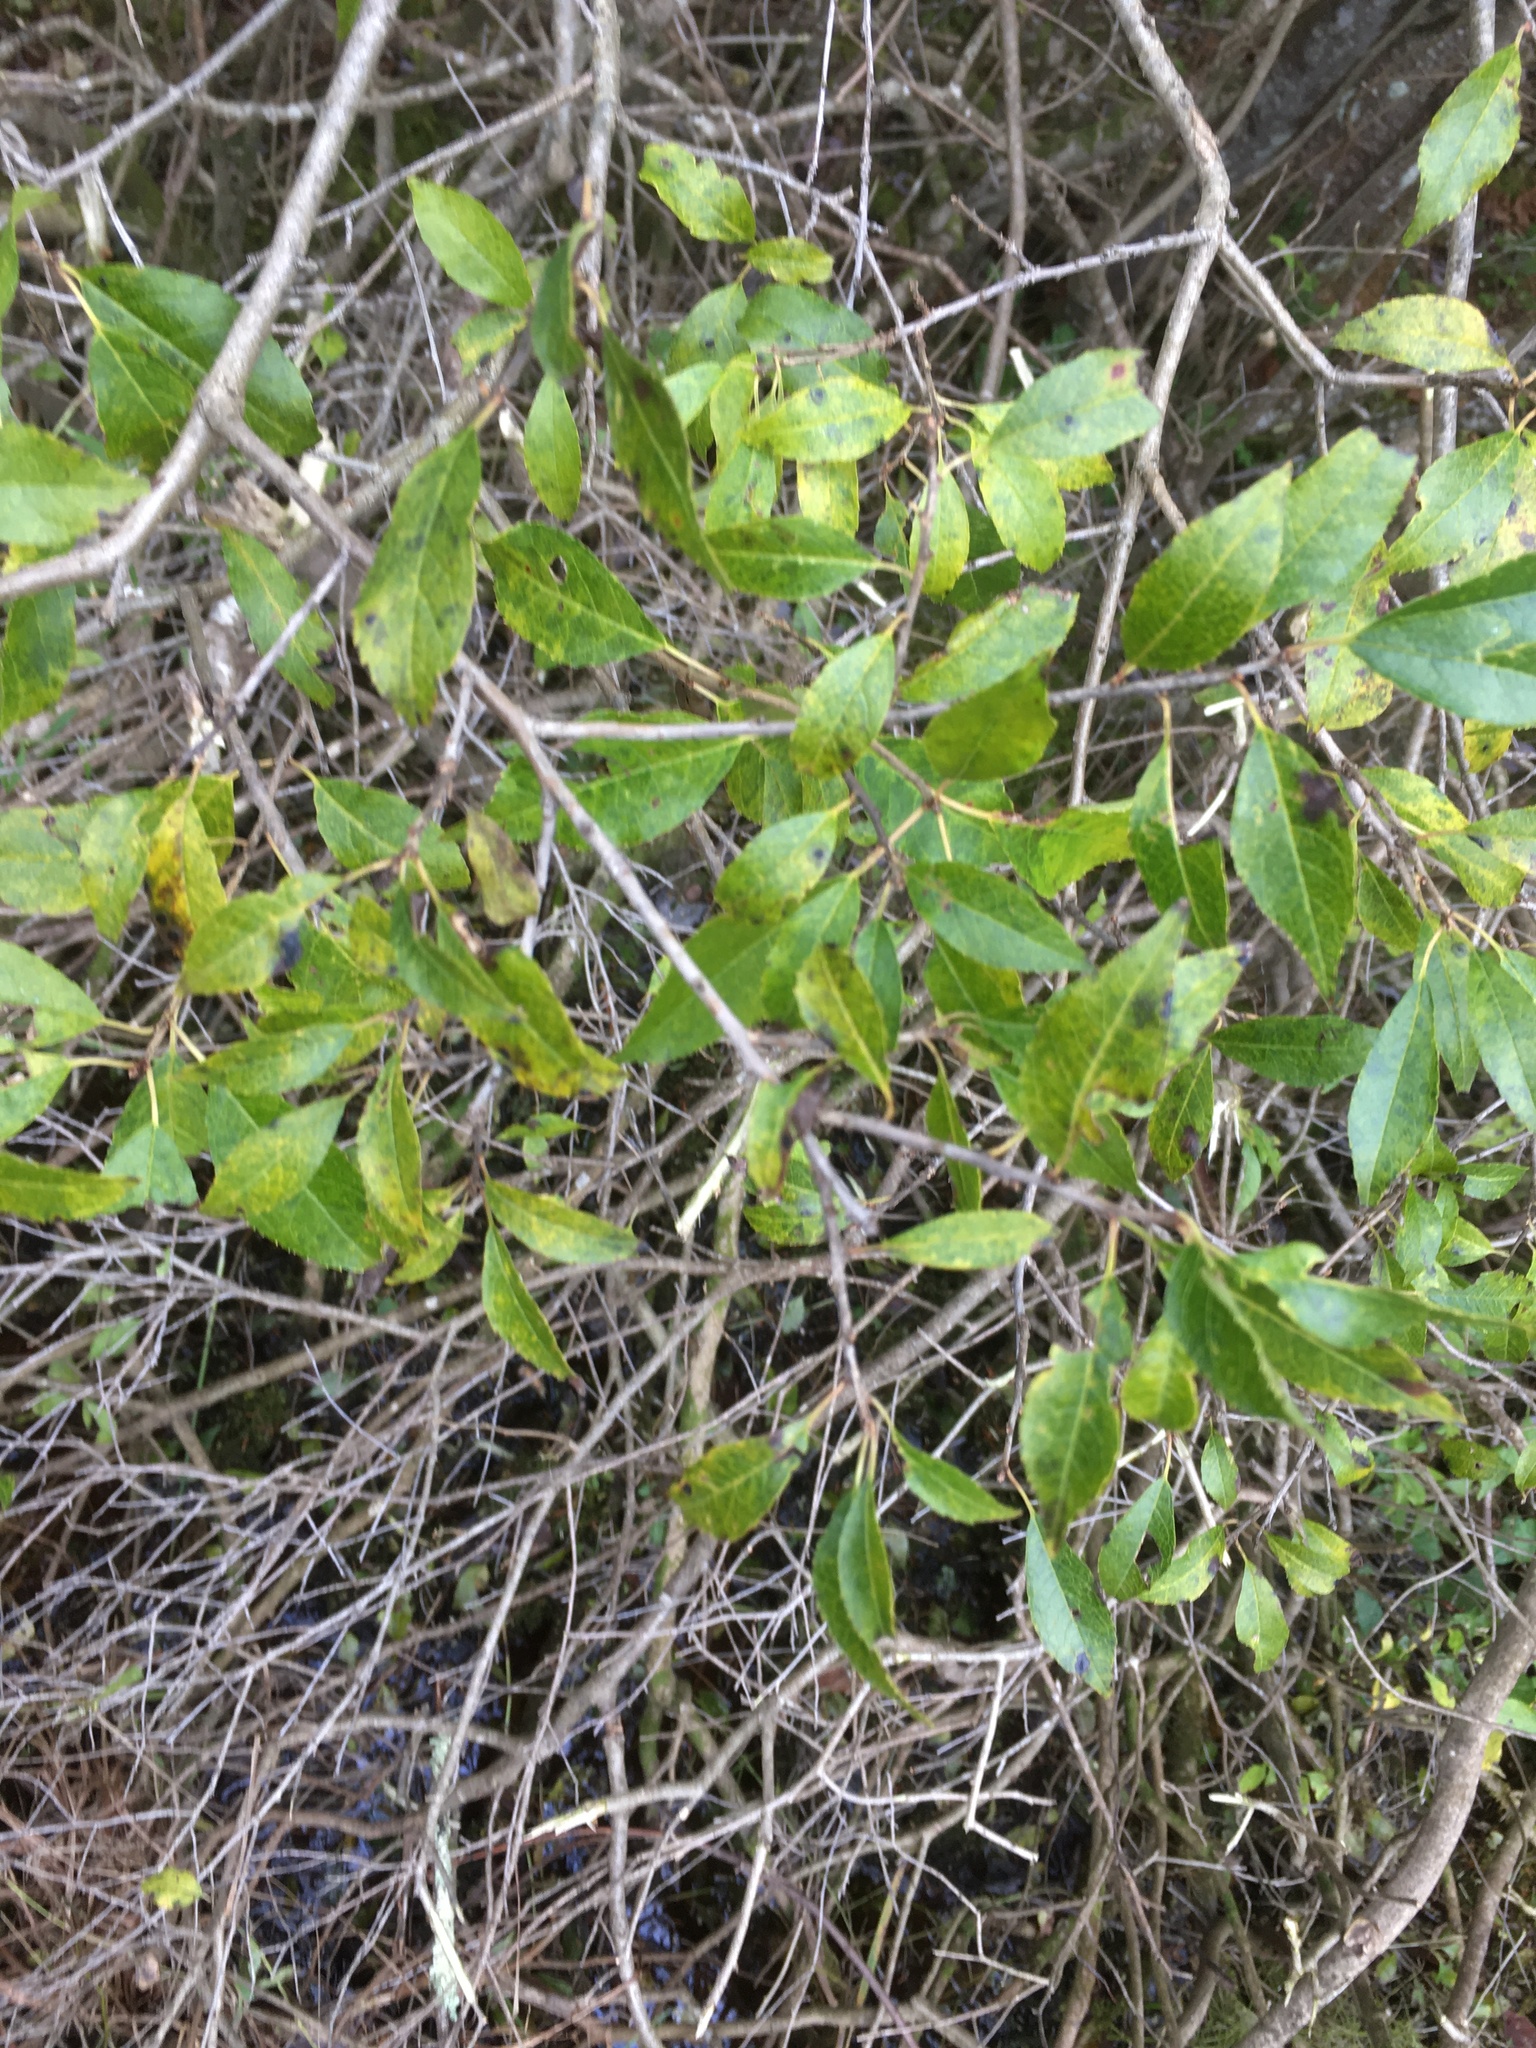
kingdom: Plantae
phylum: Tracheophyta
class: Magnoliopsida
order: Aquifoliales
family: Aquifoliaceae
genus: Ilex
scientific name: Ilex verticillata
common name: Virginia winterberry
